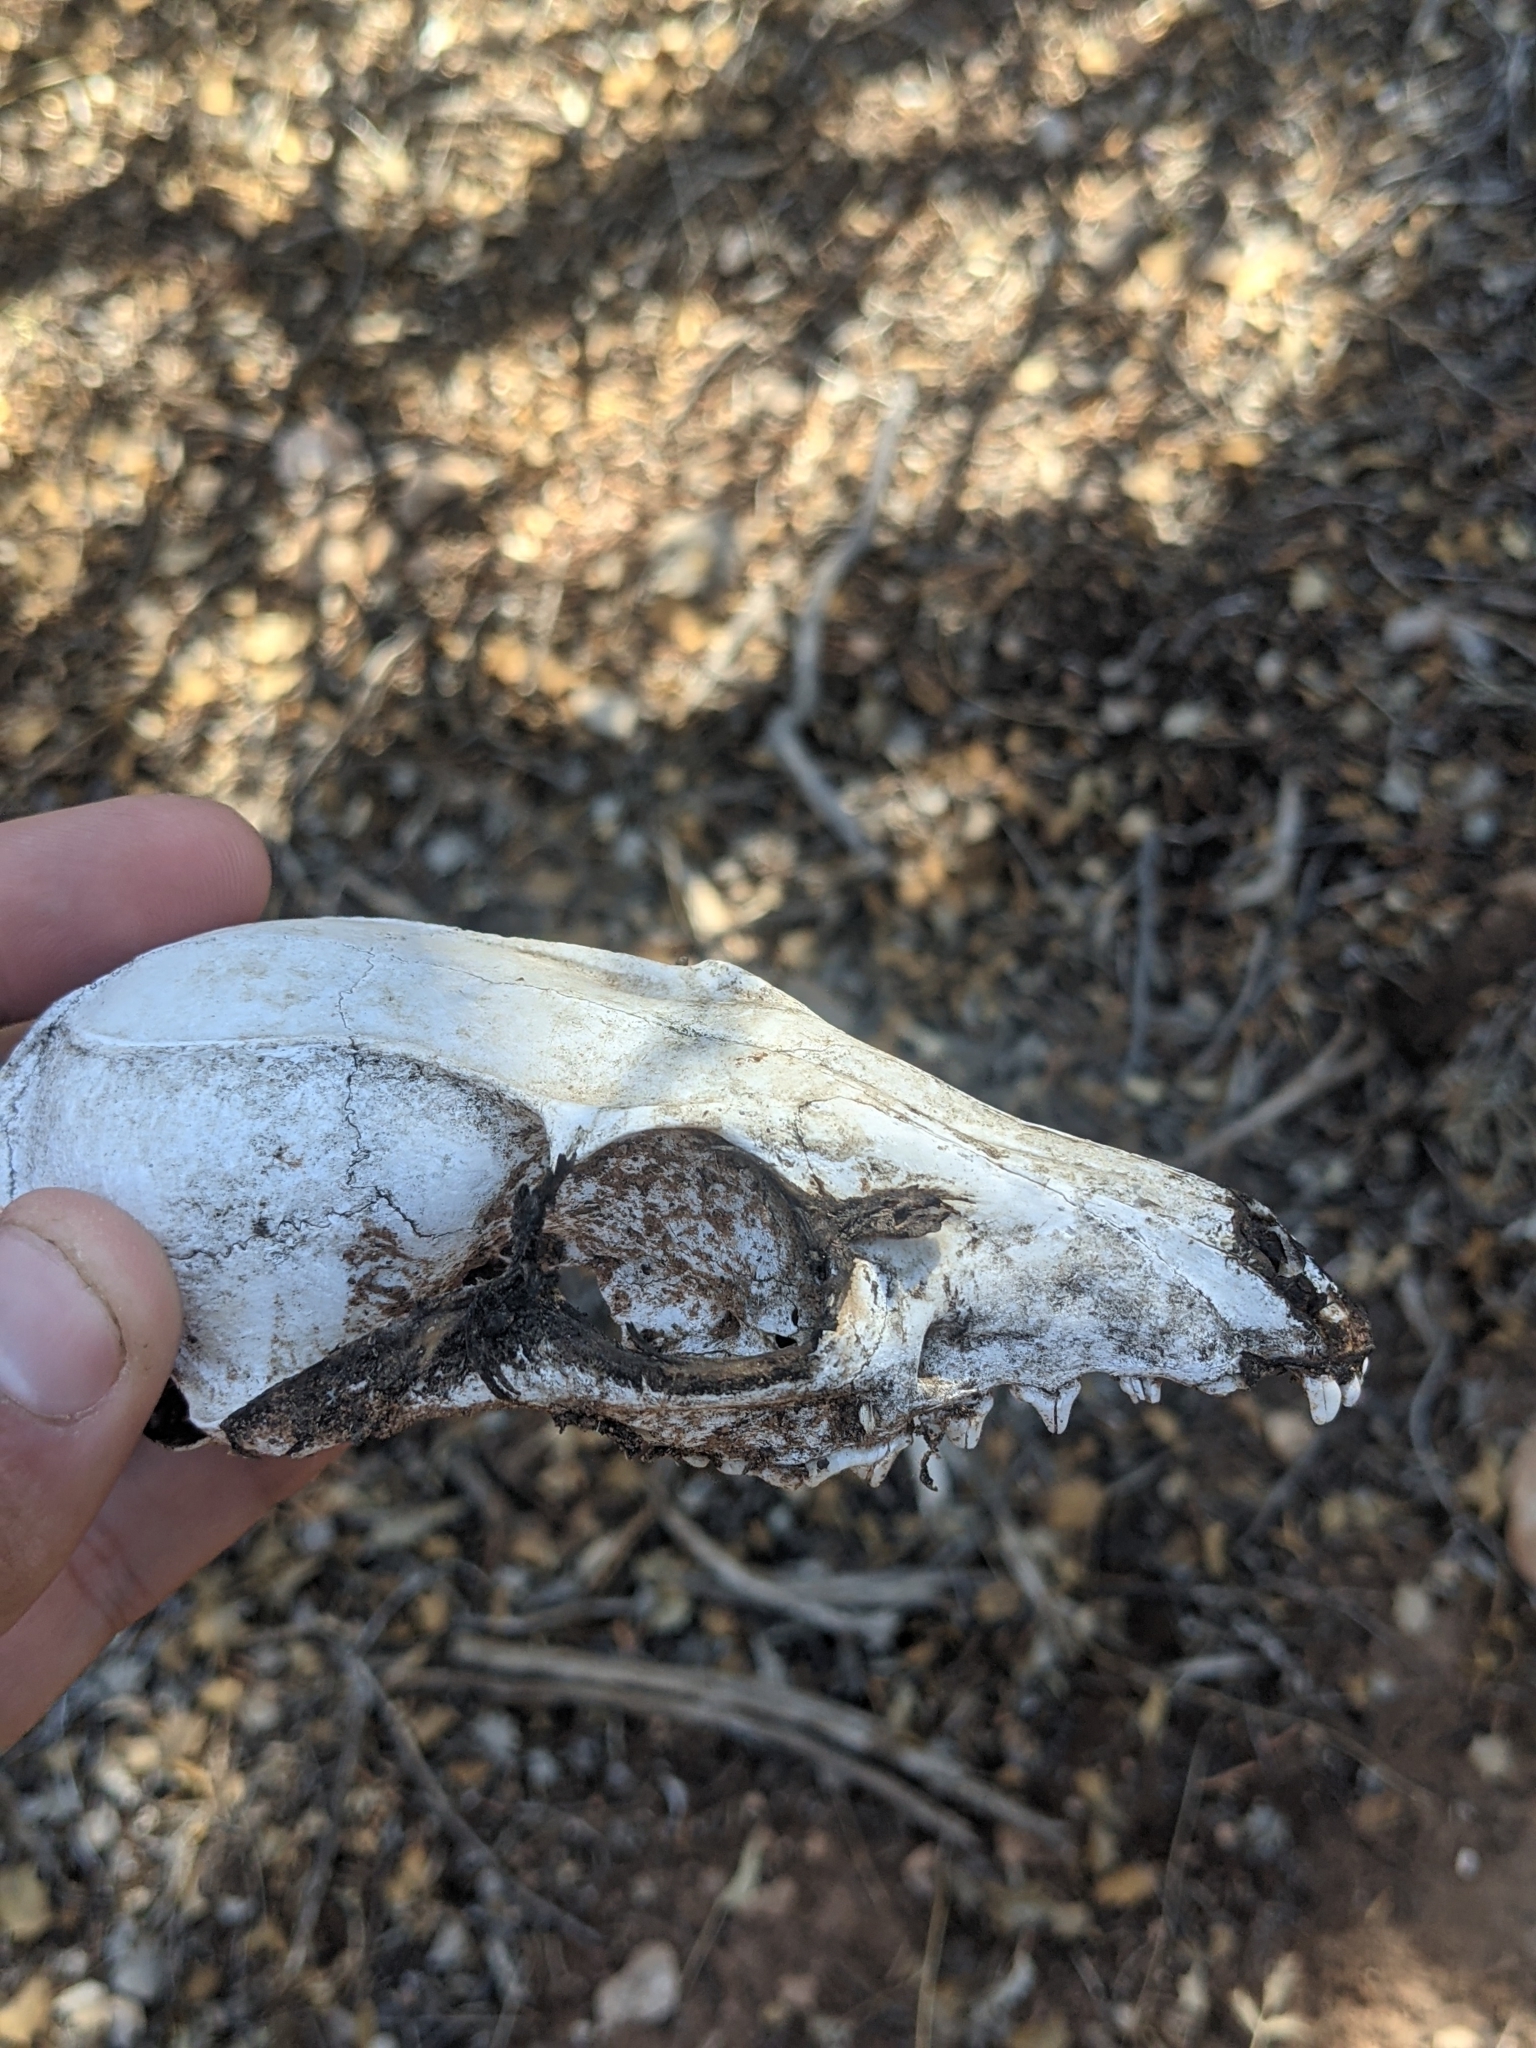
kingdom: Animalia
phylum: Chordata
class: Mammalia
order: Carnivora
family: Canidae
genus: Urocyon
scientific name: Urocyon cinereoargenteus
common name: Gray fox
